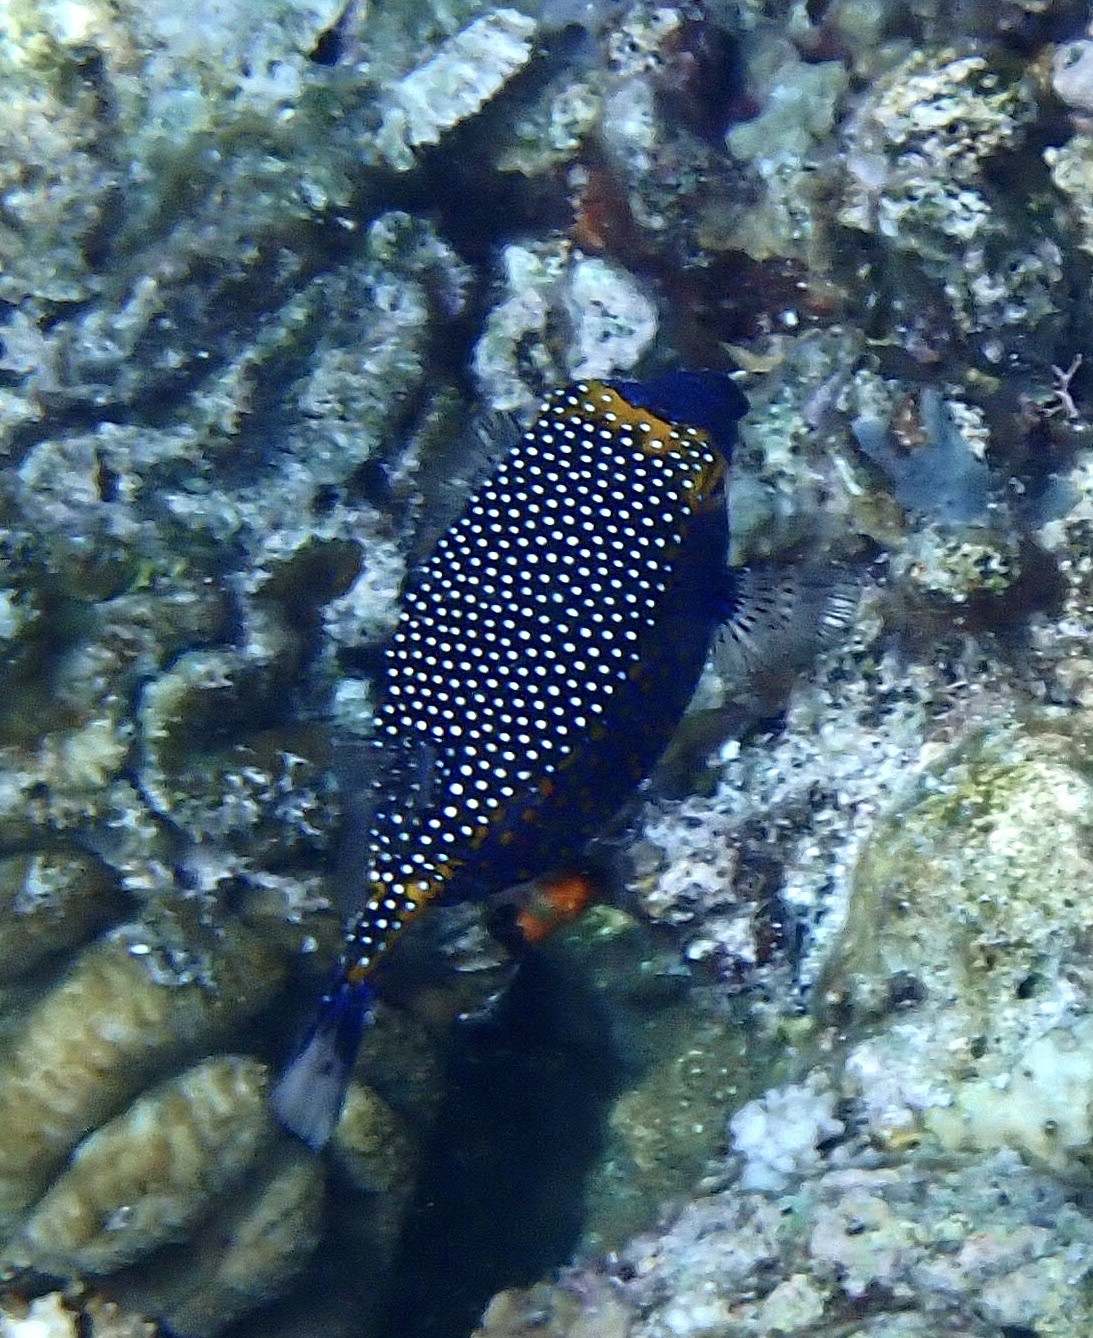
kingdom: Animalia
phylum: Chordata
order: Tetraodontiformes
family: Ostraciidae
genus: Ostracion
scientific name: Ostracion meleagris
